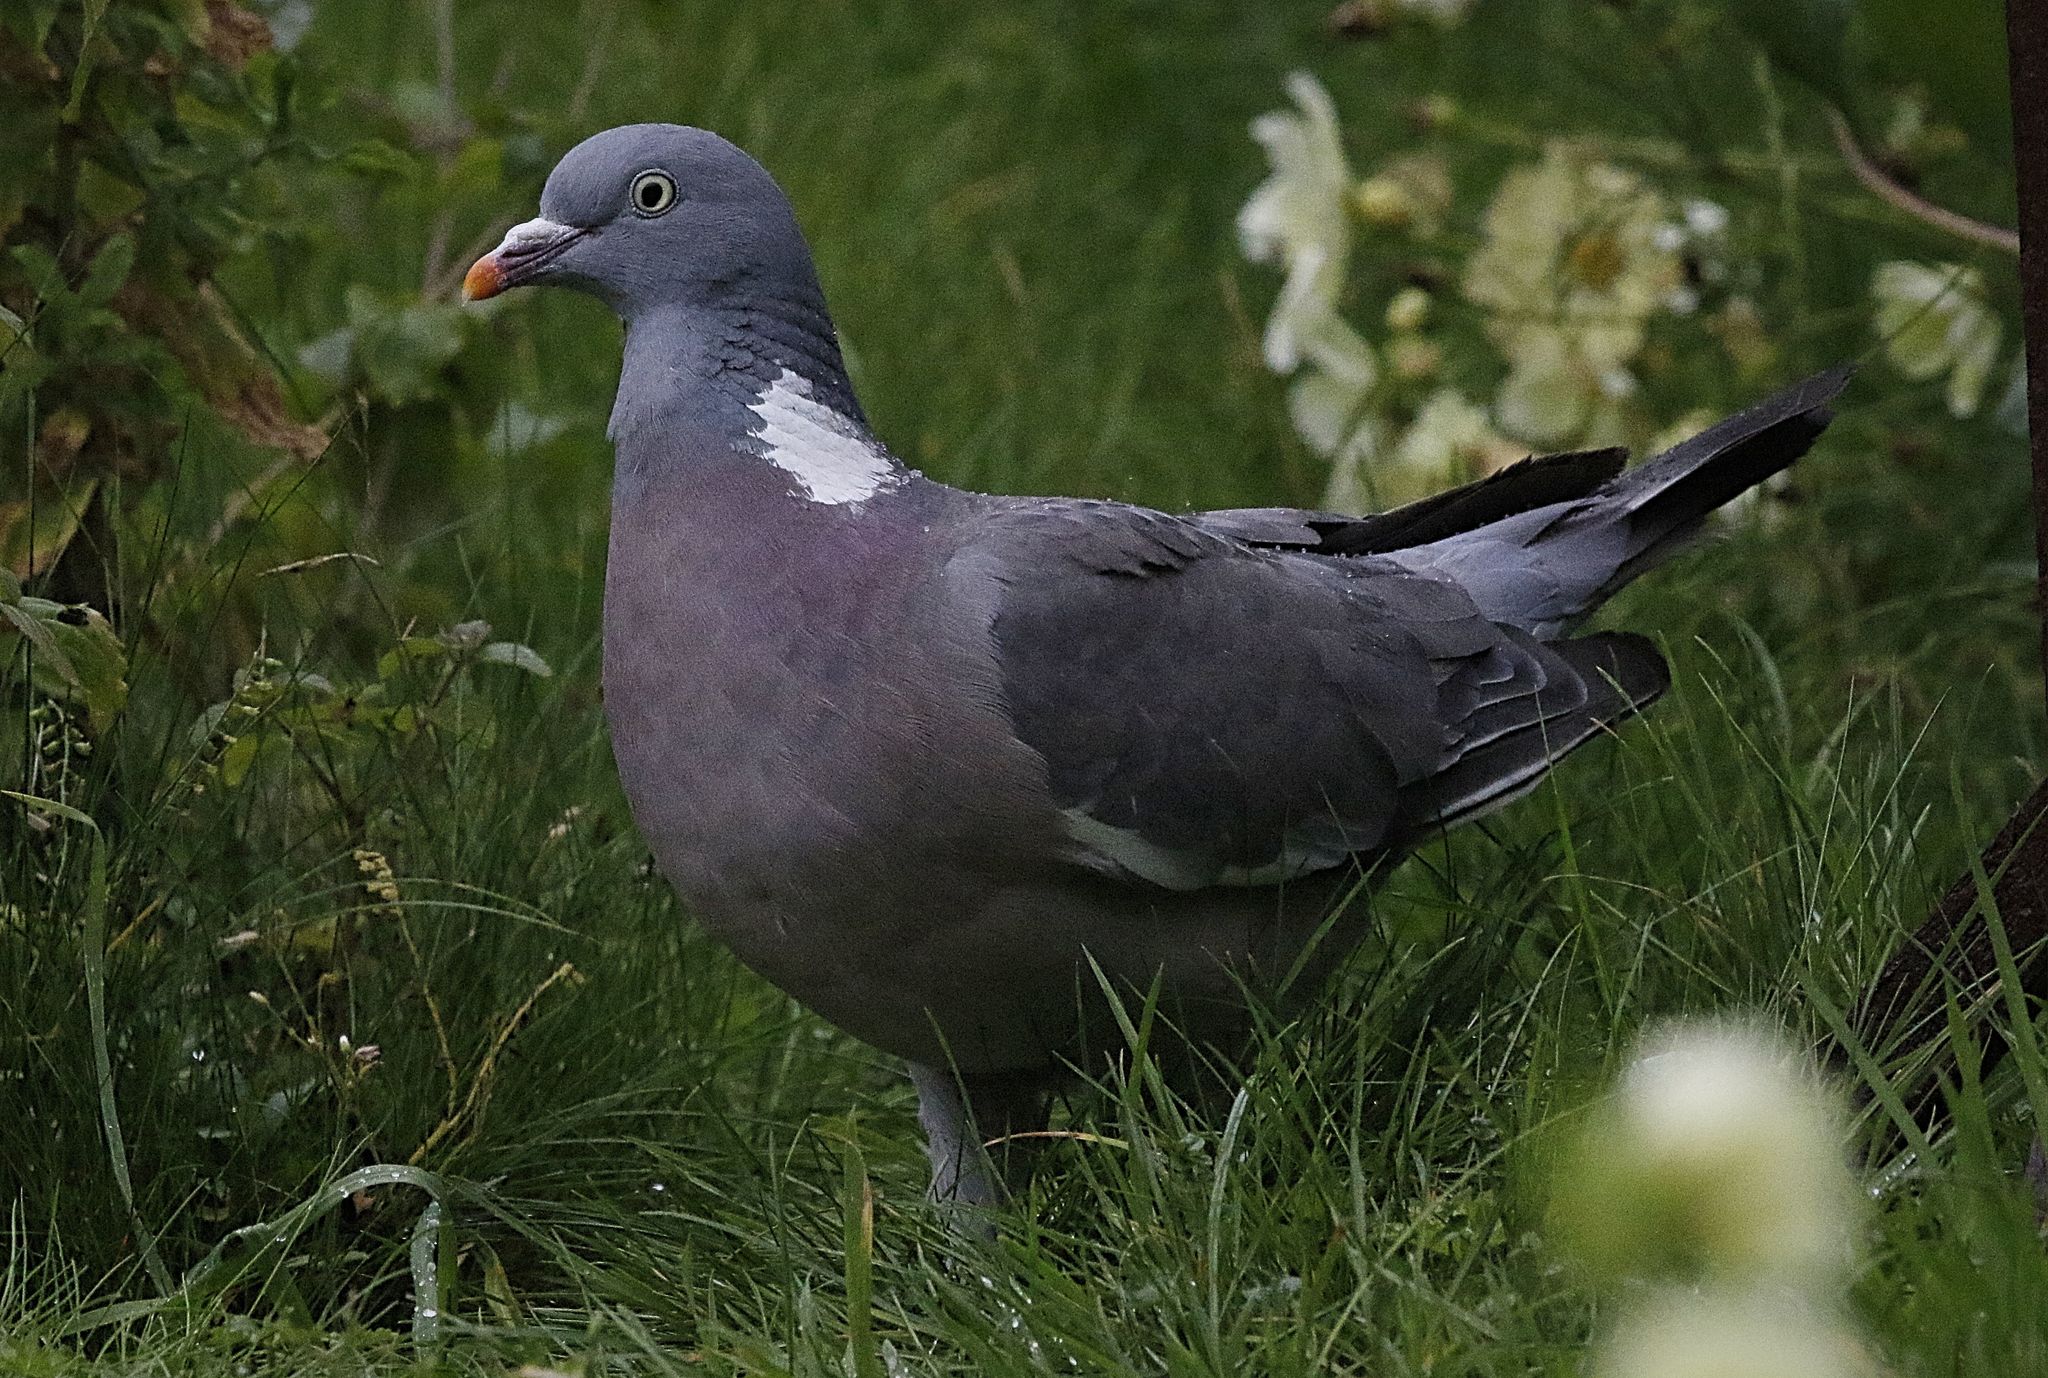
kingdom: Animalia
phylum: Chordata
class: Aves
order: Columbiformes
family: Columbidae
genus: Columba
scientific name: Columba palumbus
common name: Common wood pigeon
